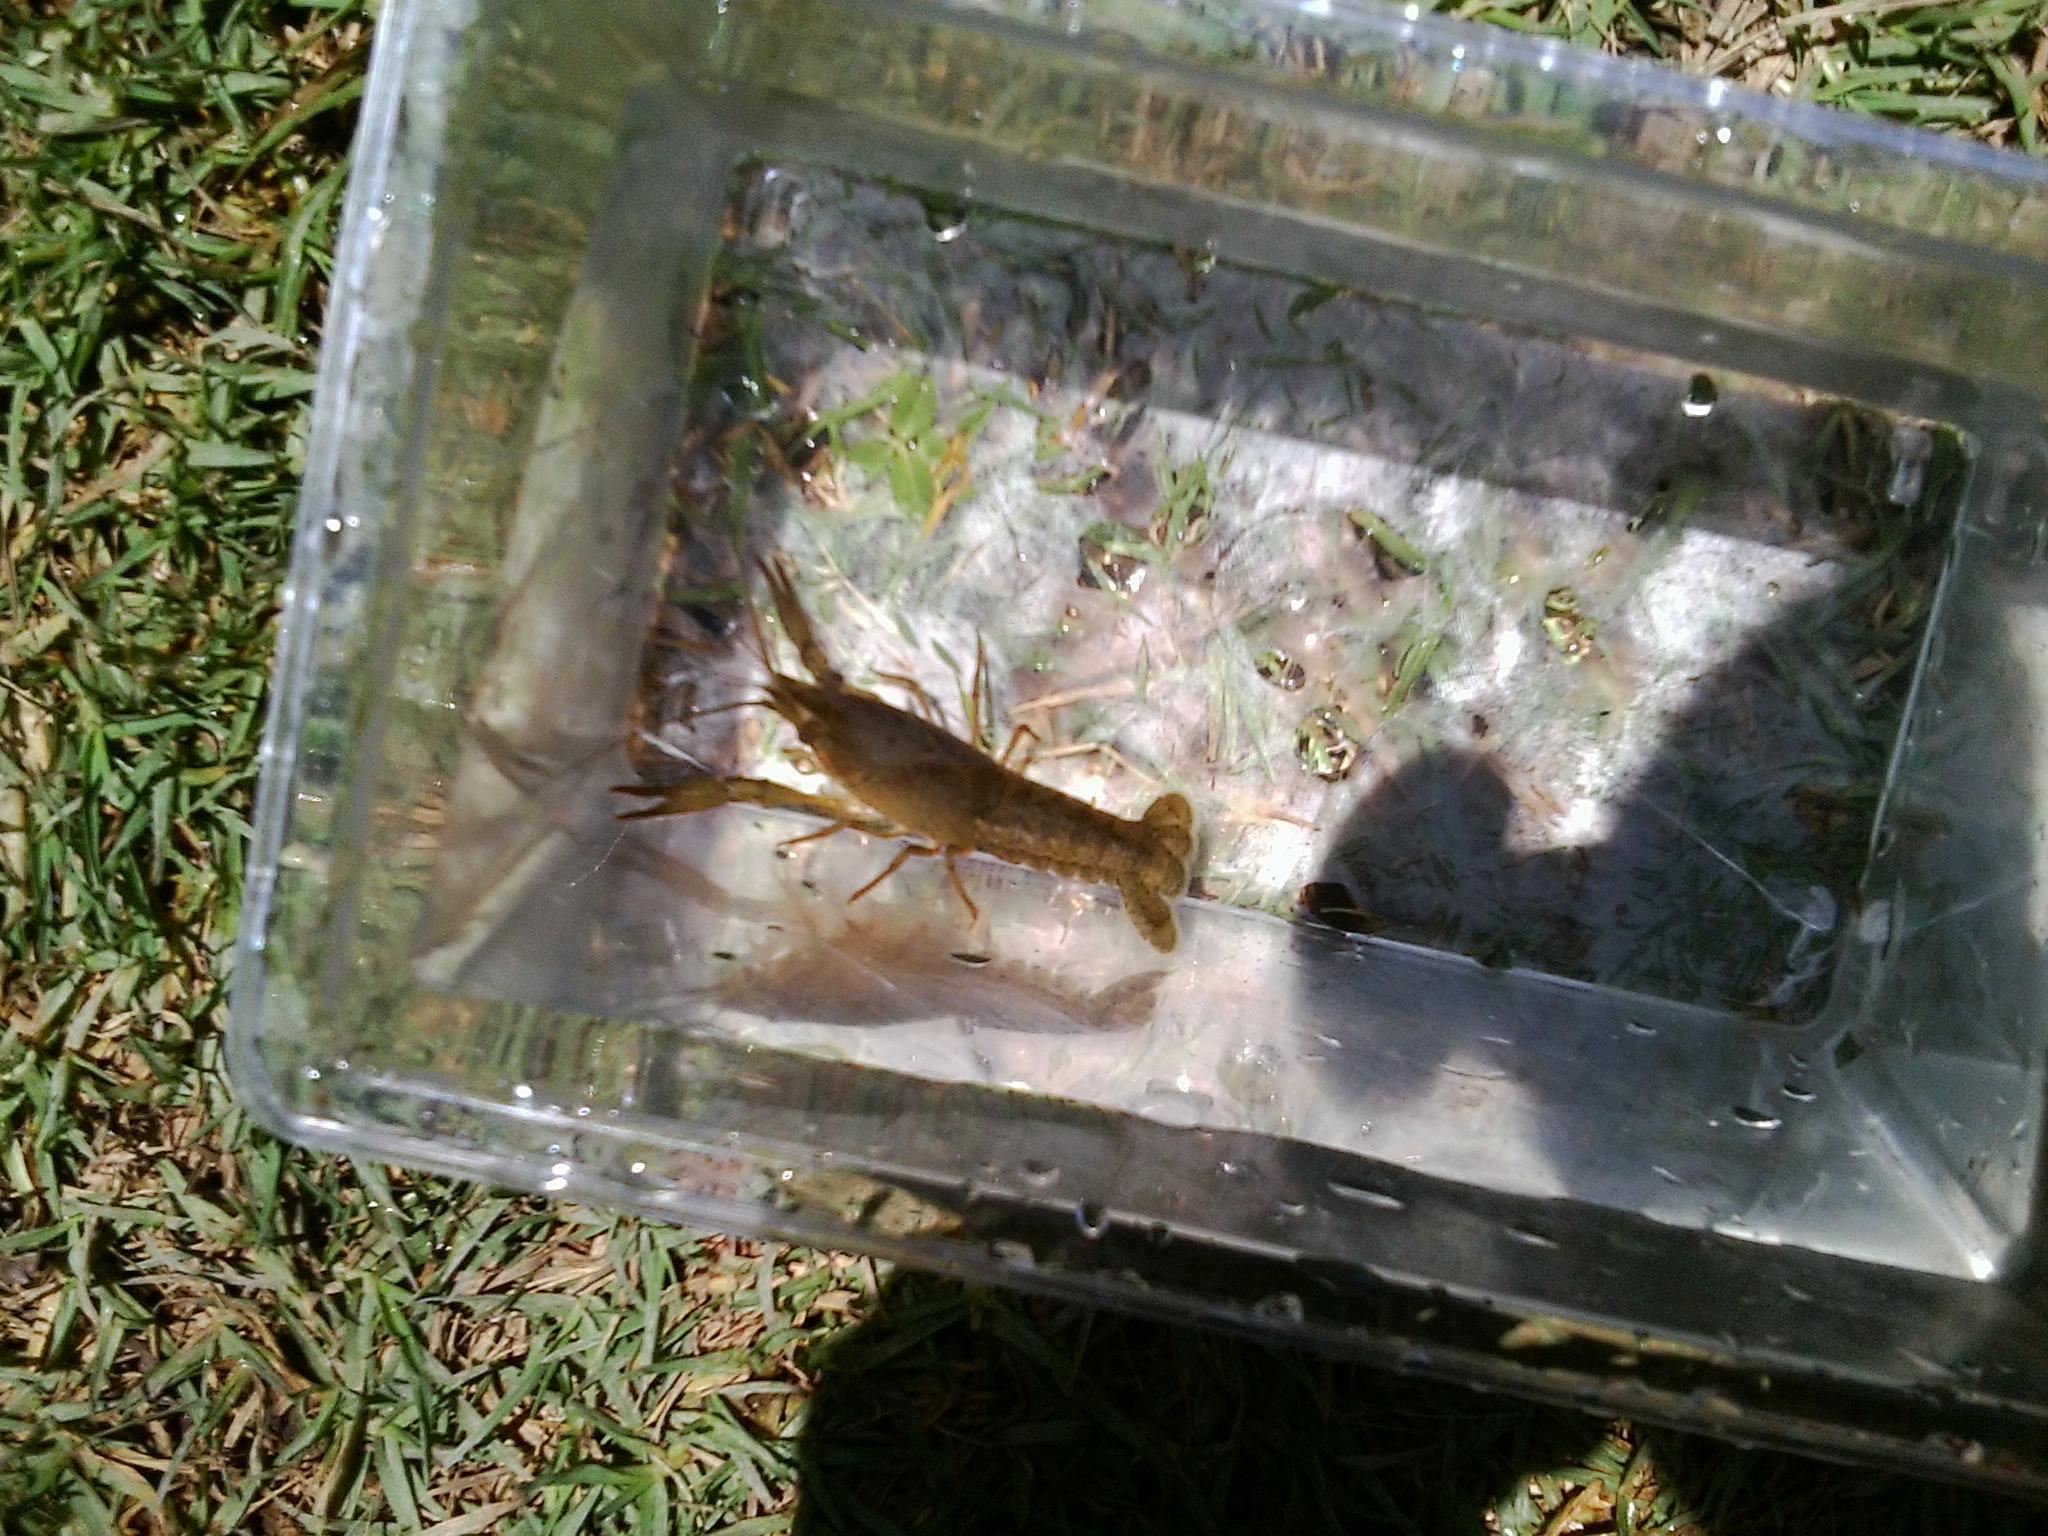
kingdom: Animalia
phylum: Arthropoda
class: Malacostraca
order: Decapoda
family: Astacidae
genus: Pacifastacus
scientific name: Pacifastacus leniusculus
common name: Signal crayfish
